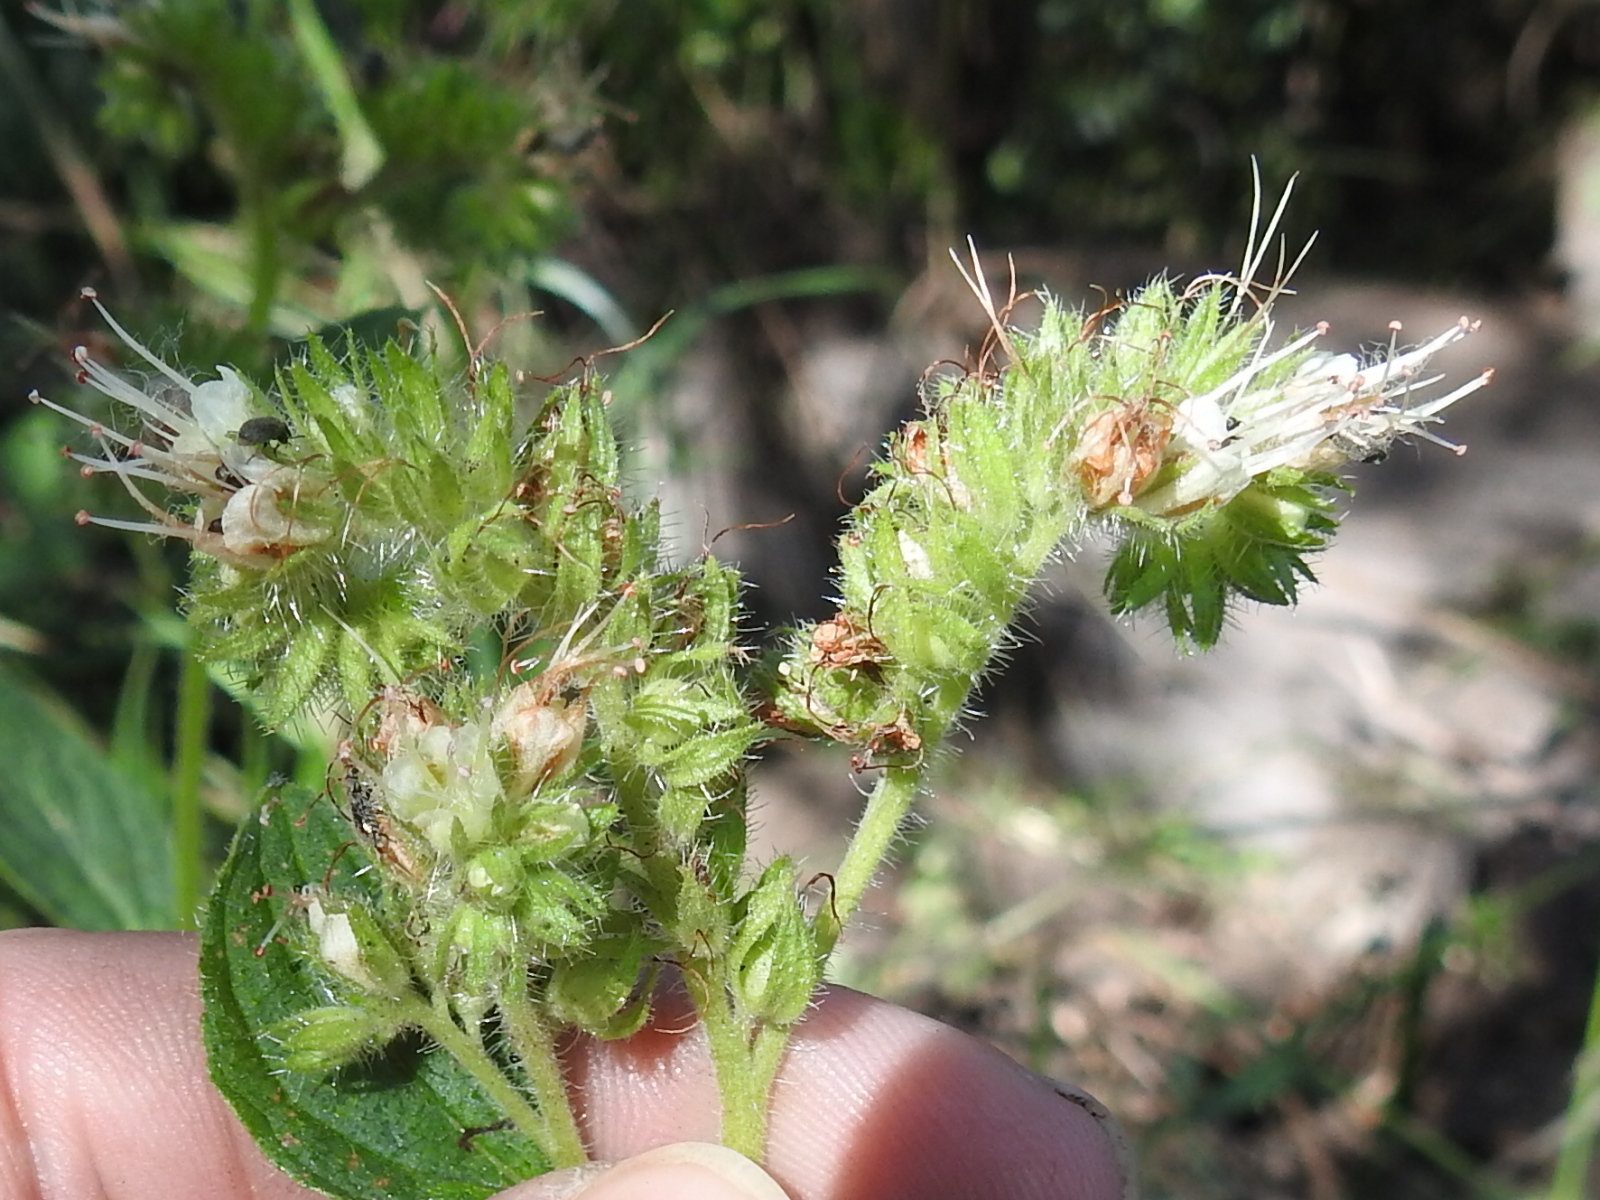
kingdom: Plantae
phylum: Tracheophyta
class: Magnoliopsida
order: Boraginales
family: Hydrophyllaceae
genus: Phacelia
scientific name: Phacelia heterophylla
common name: Variable-leaved phacelia
